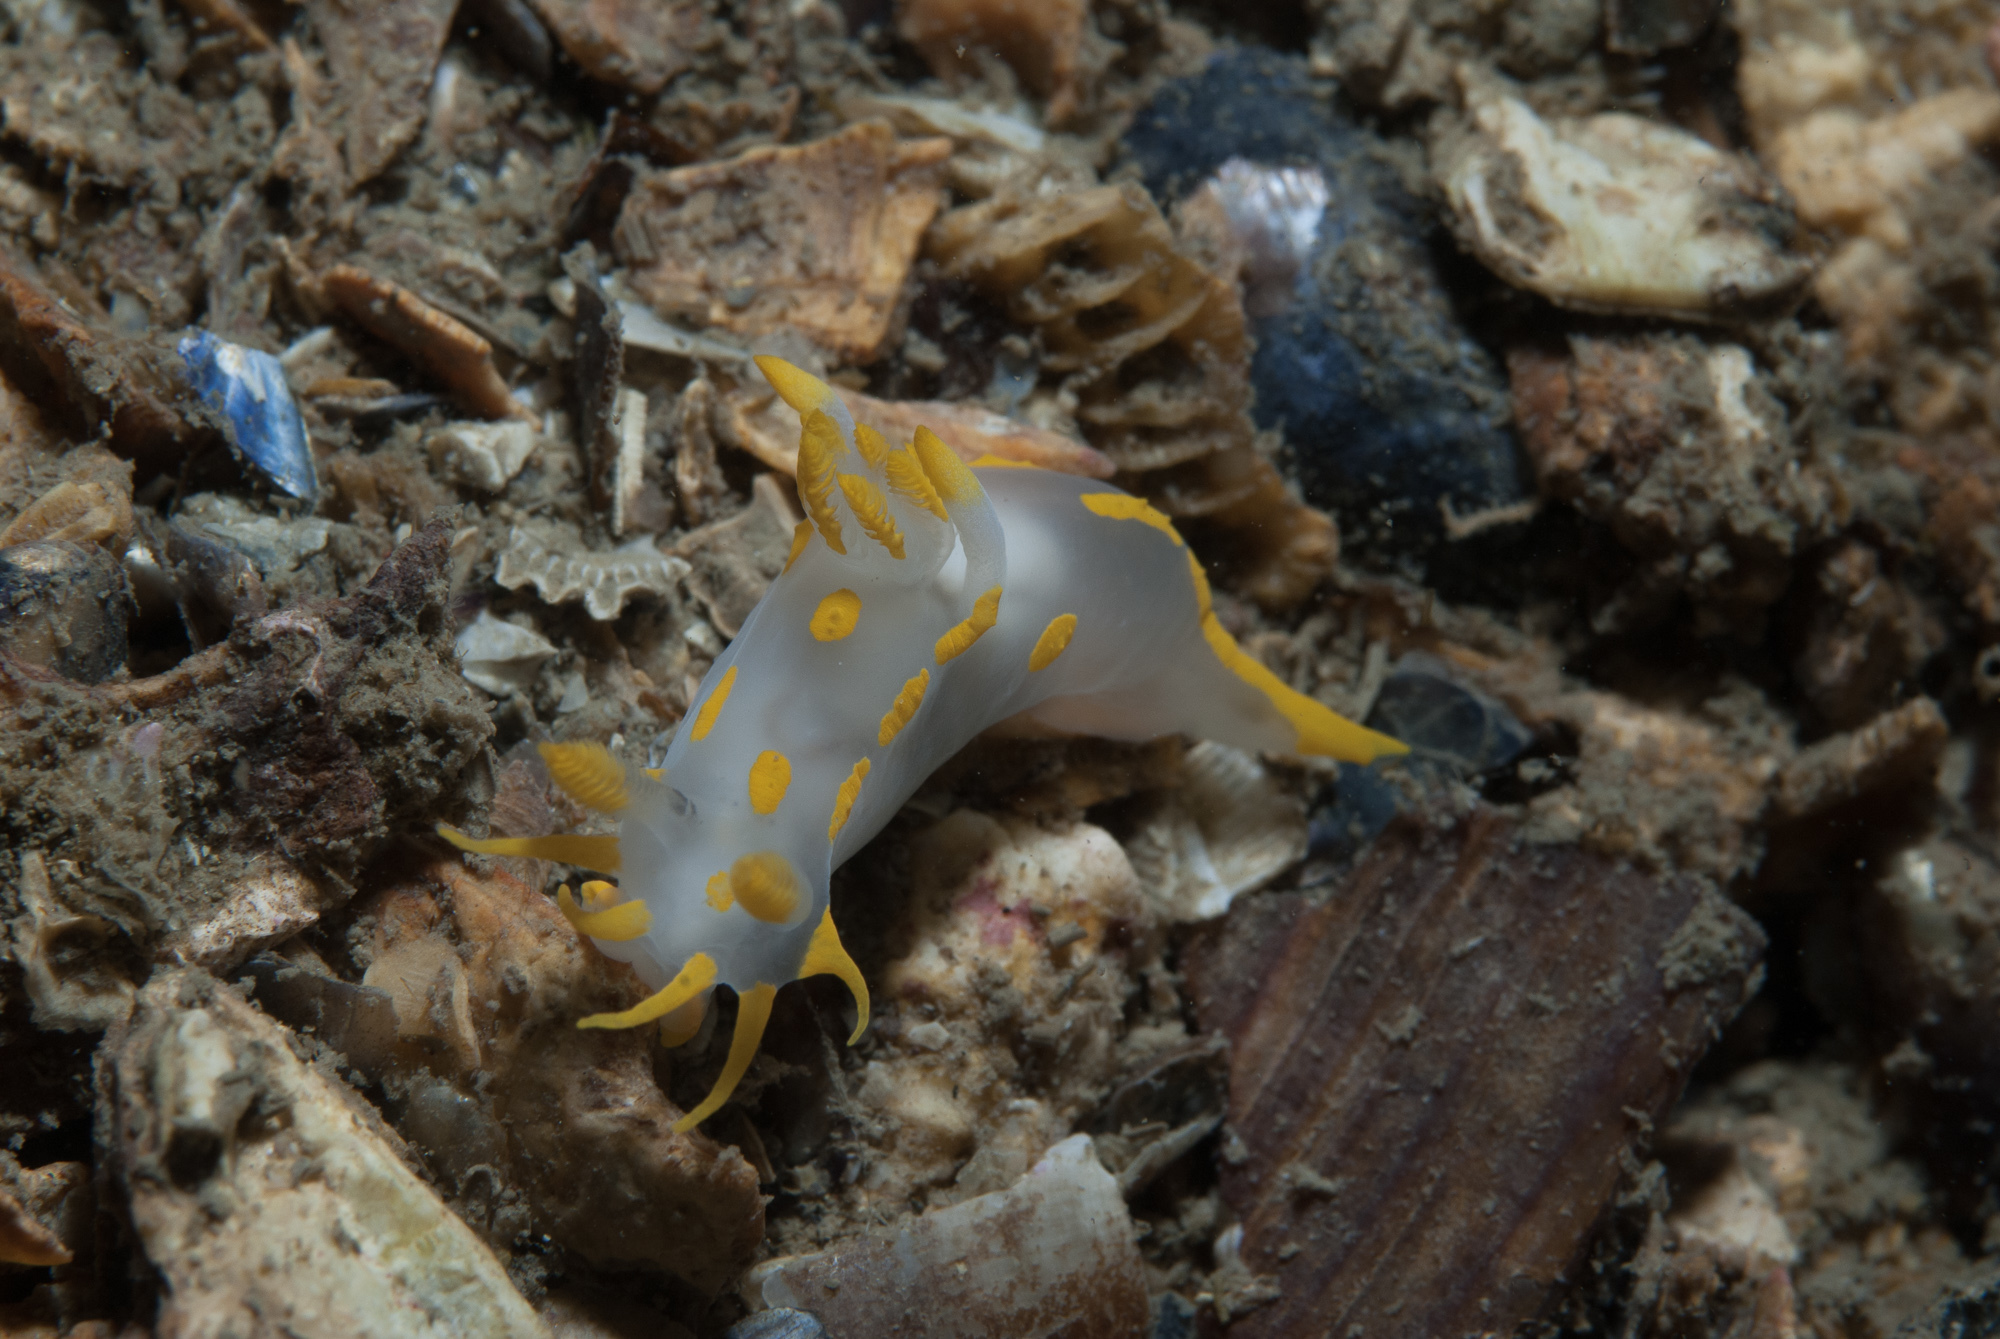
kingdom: Animalia
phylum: Mollusca
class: Gastropoda
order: Nudibranchia
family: Polyceridae
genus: Polycera
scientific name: Polycera quadrilineata
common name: Four-striped polycera
